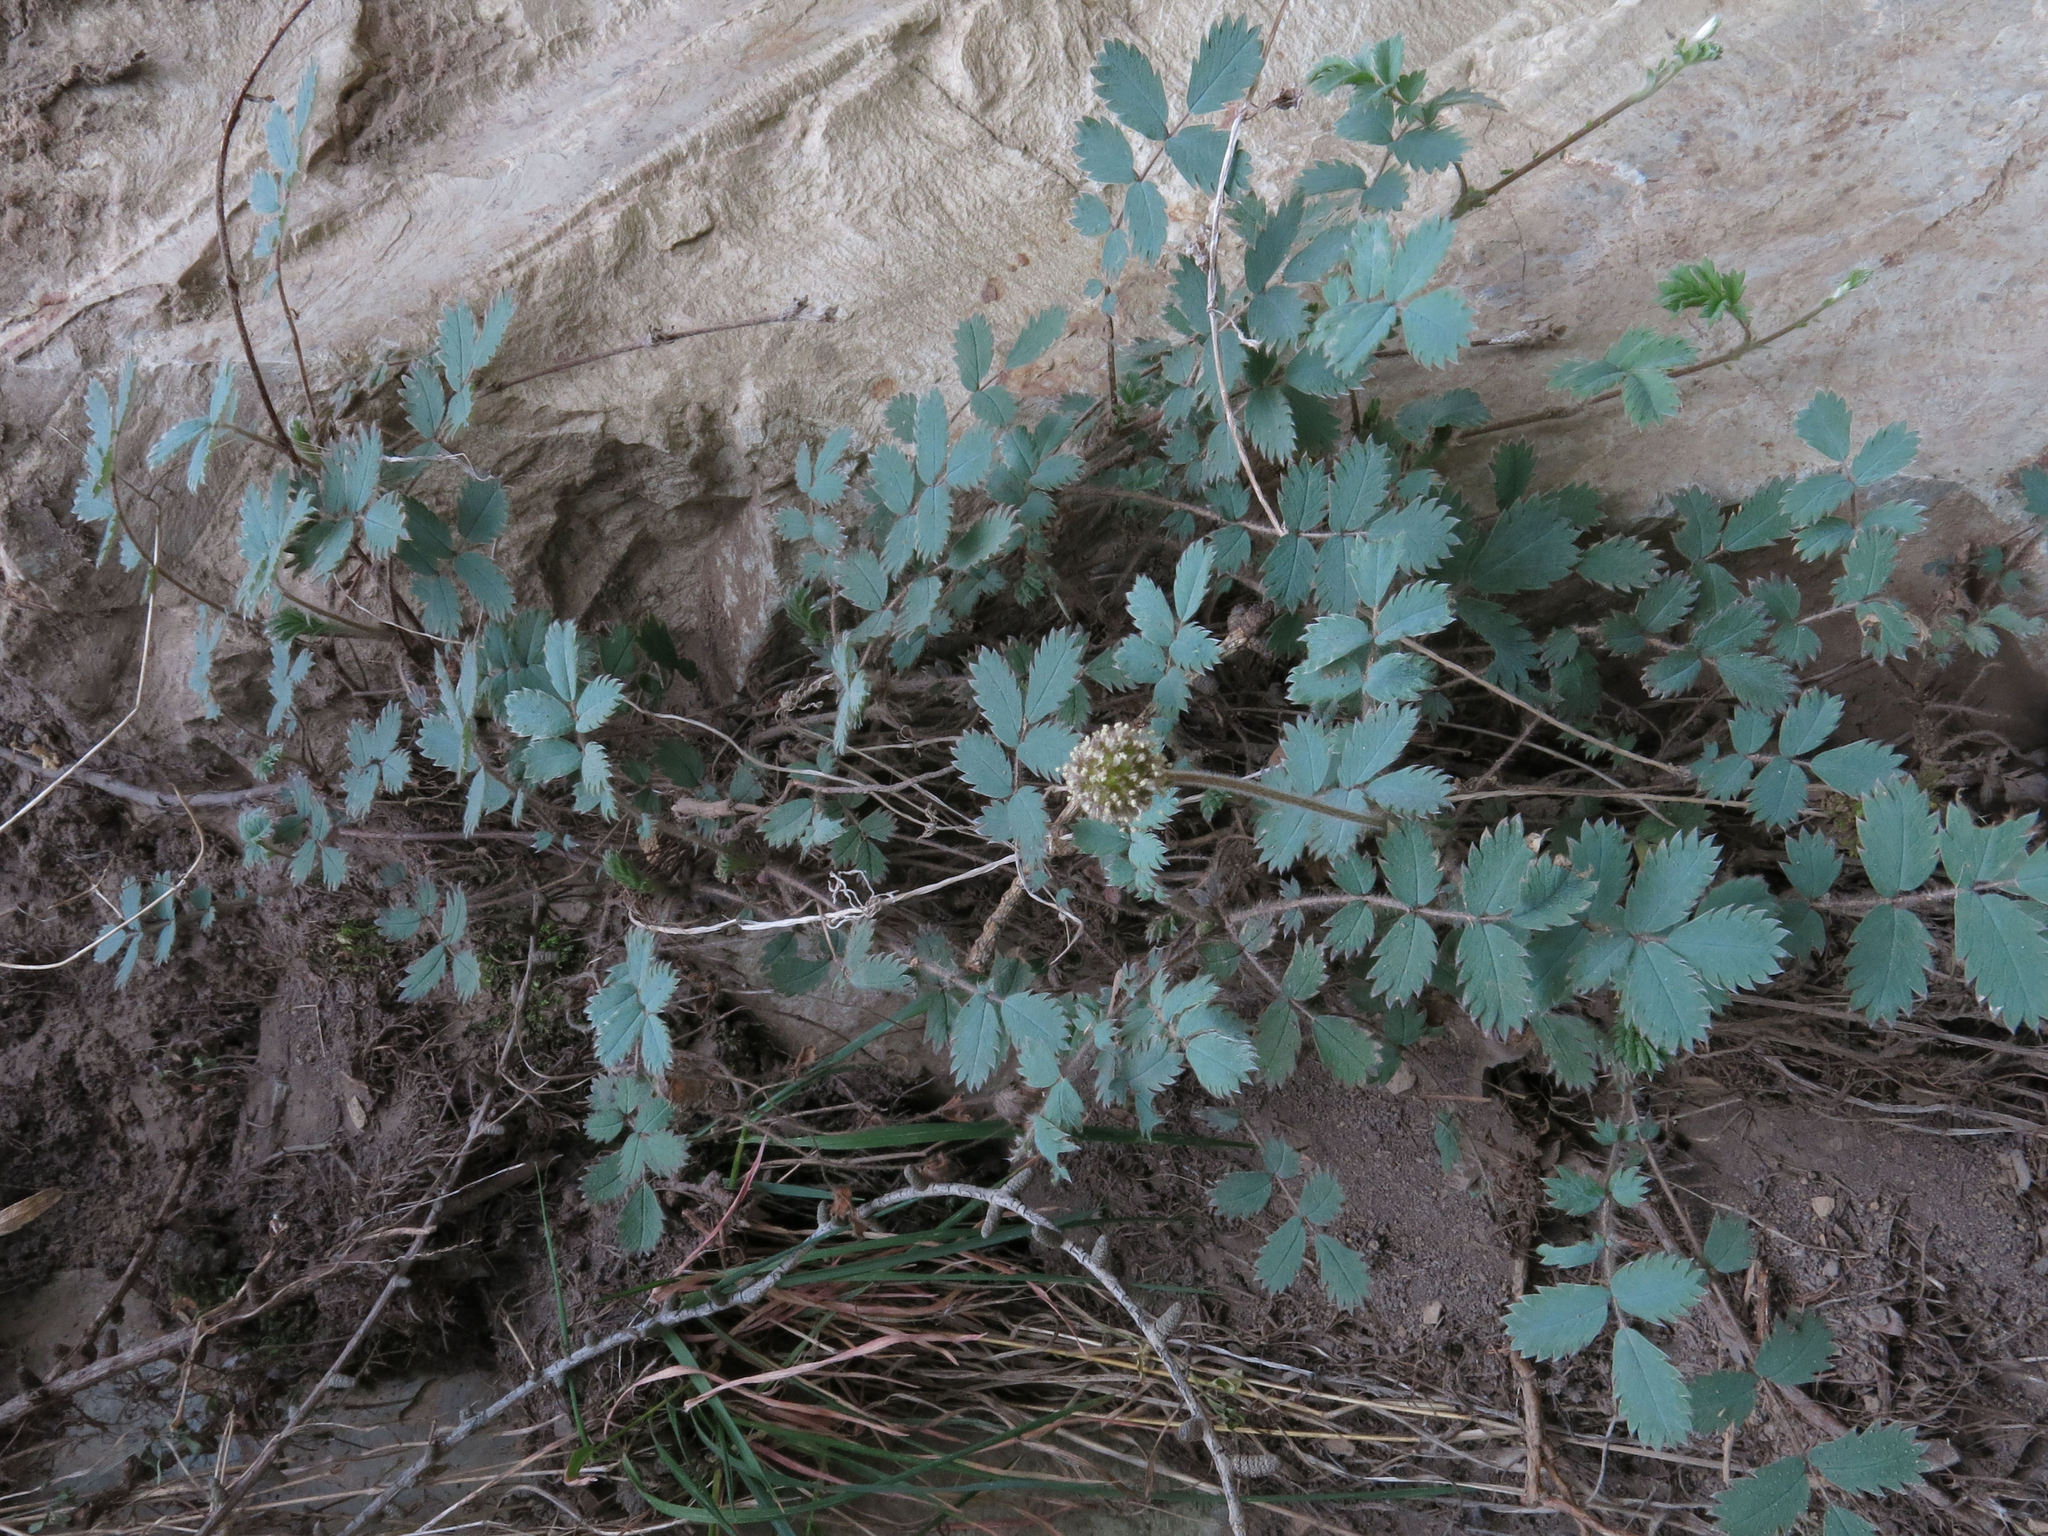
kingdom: Plantae
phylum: Tracheophyta
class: Magnoliopsida
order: Rosales
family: Rosaceae
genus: Acaena
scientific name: Acaena caesiiglauca
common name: Glaucous pirri-pirri-bur
